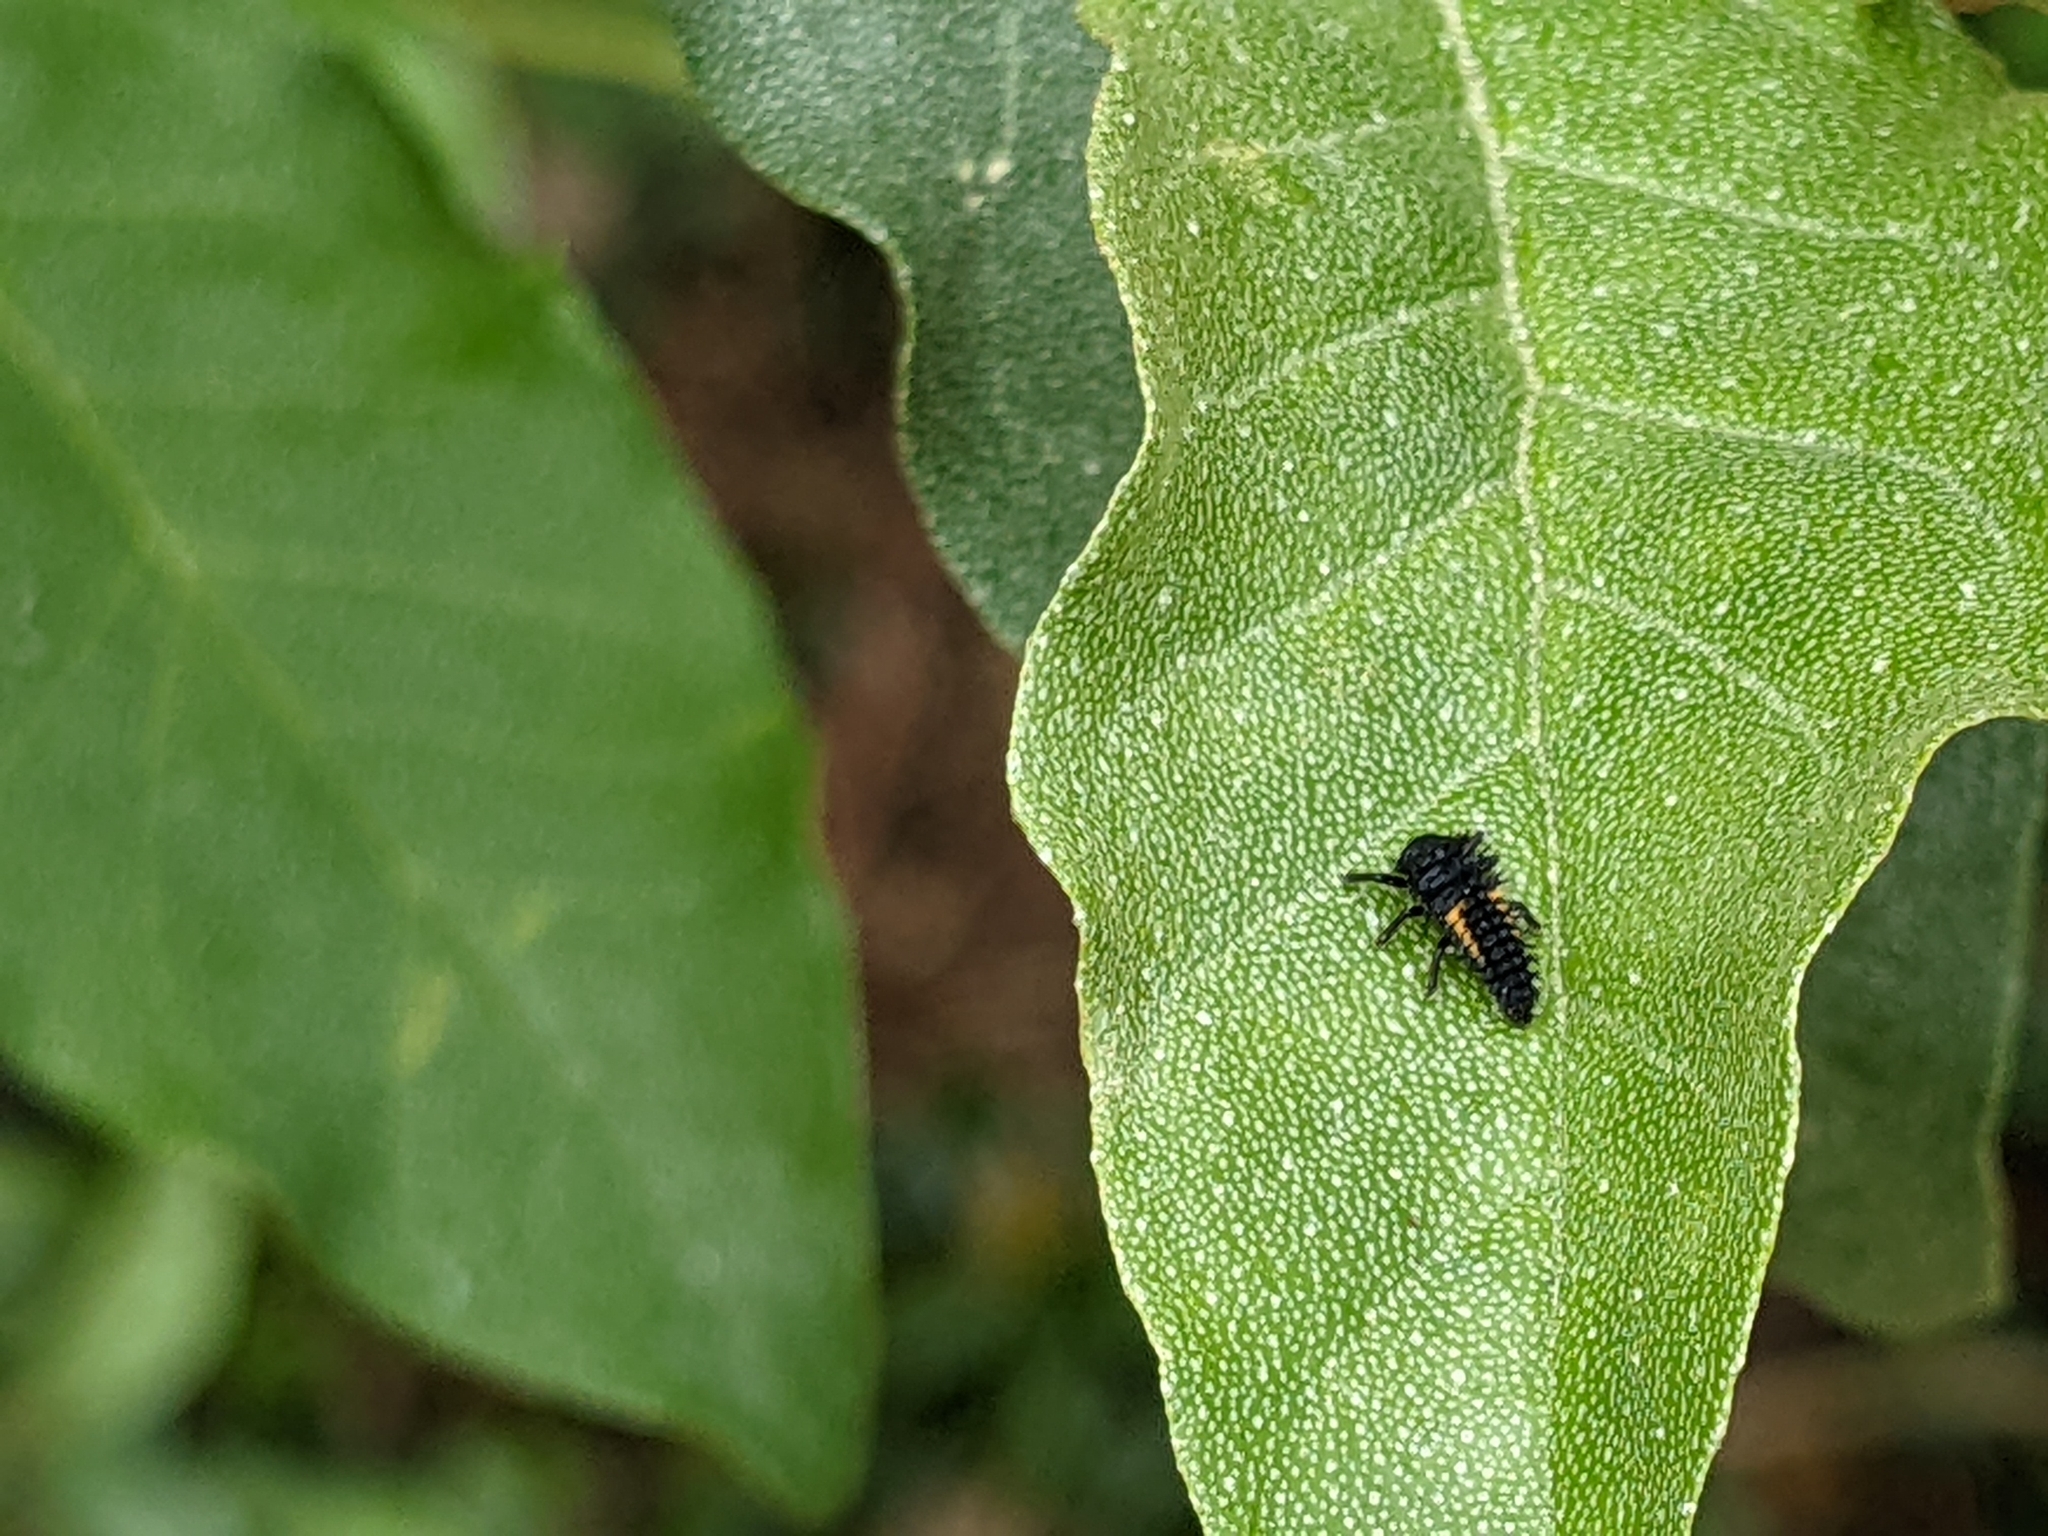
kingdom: Animalia
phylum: Arthropoda
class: Insecta
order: Coleoptera
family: Coccinellidae
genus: Harmonia
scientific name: Harmonia axyridis
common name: Harlequin ladybird
